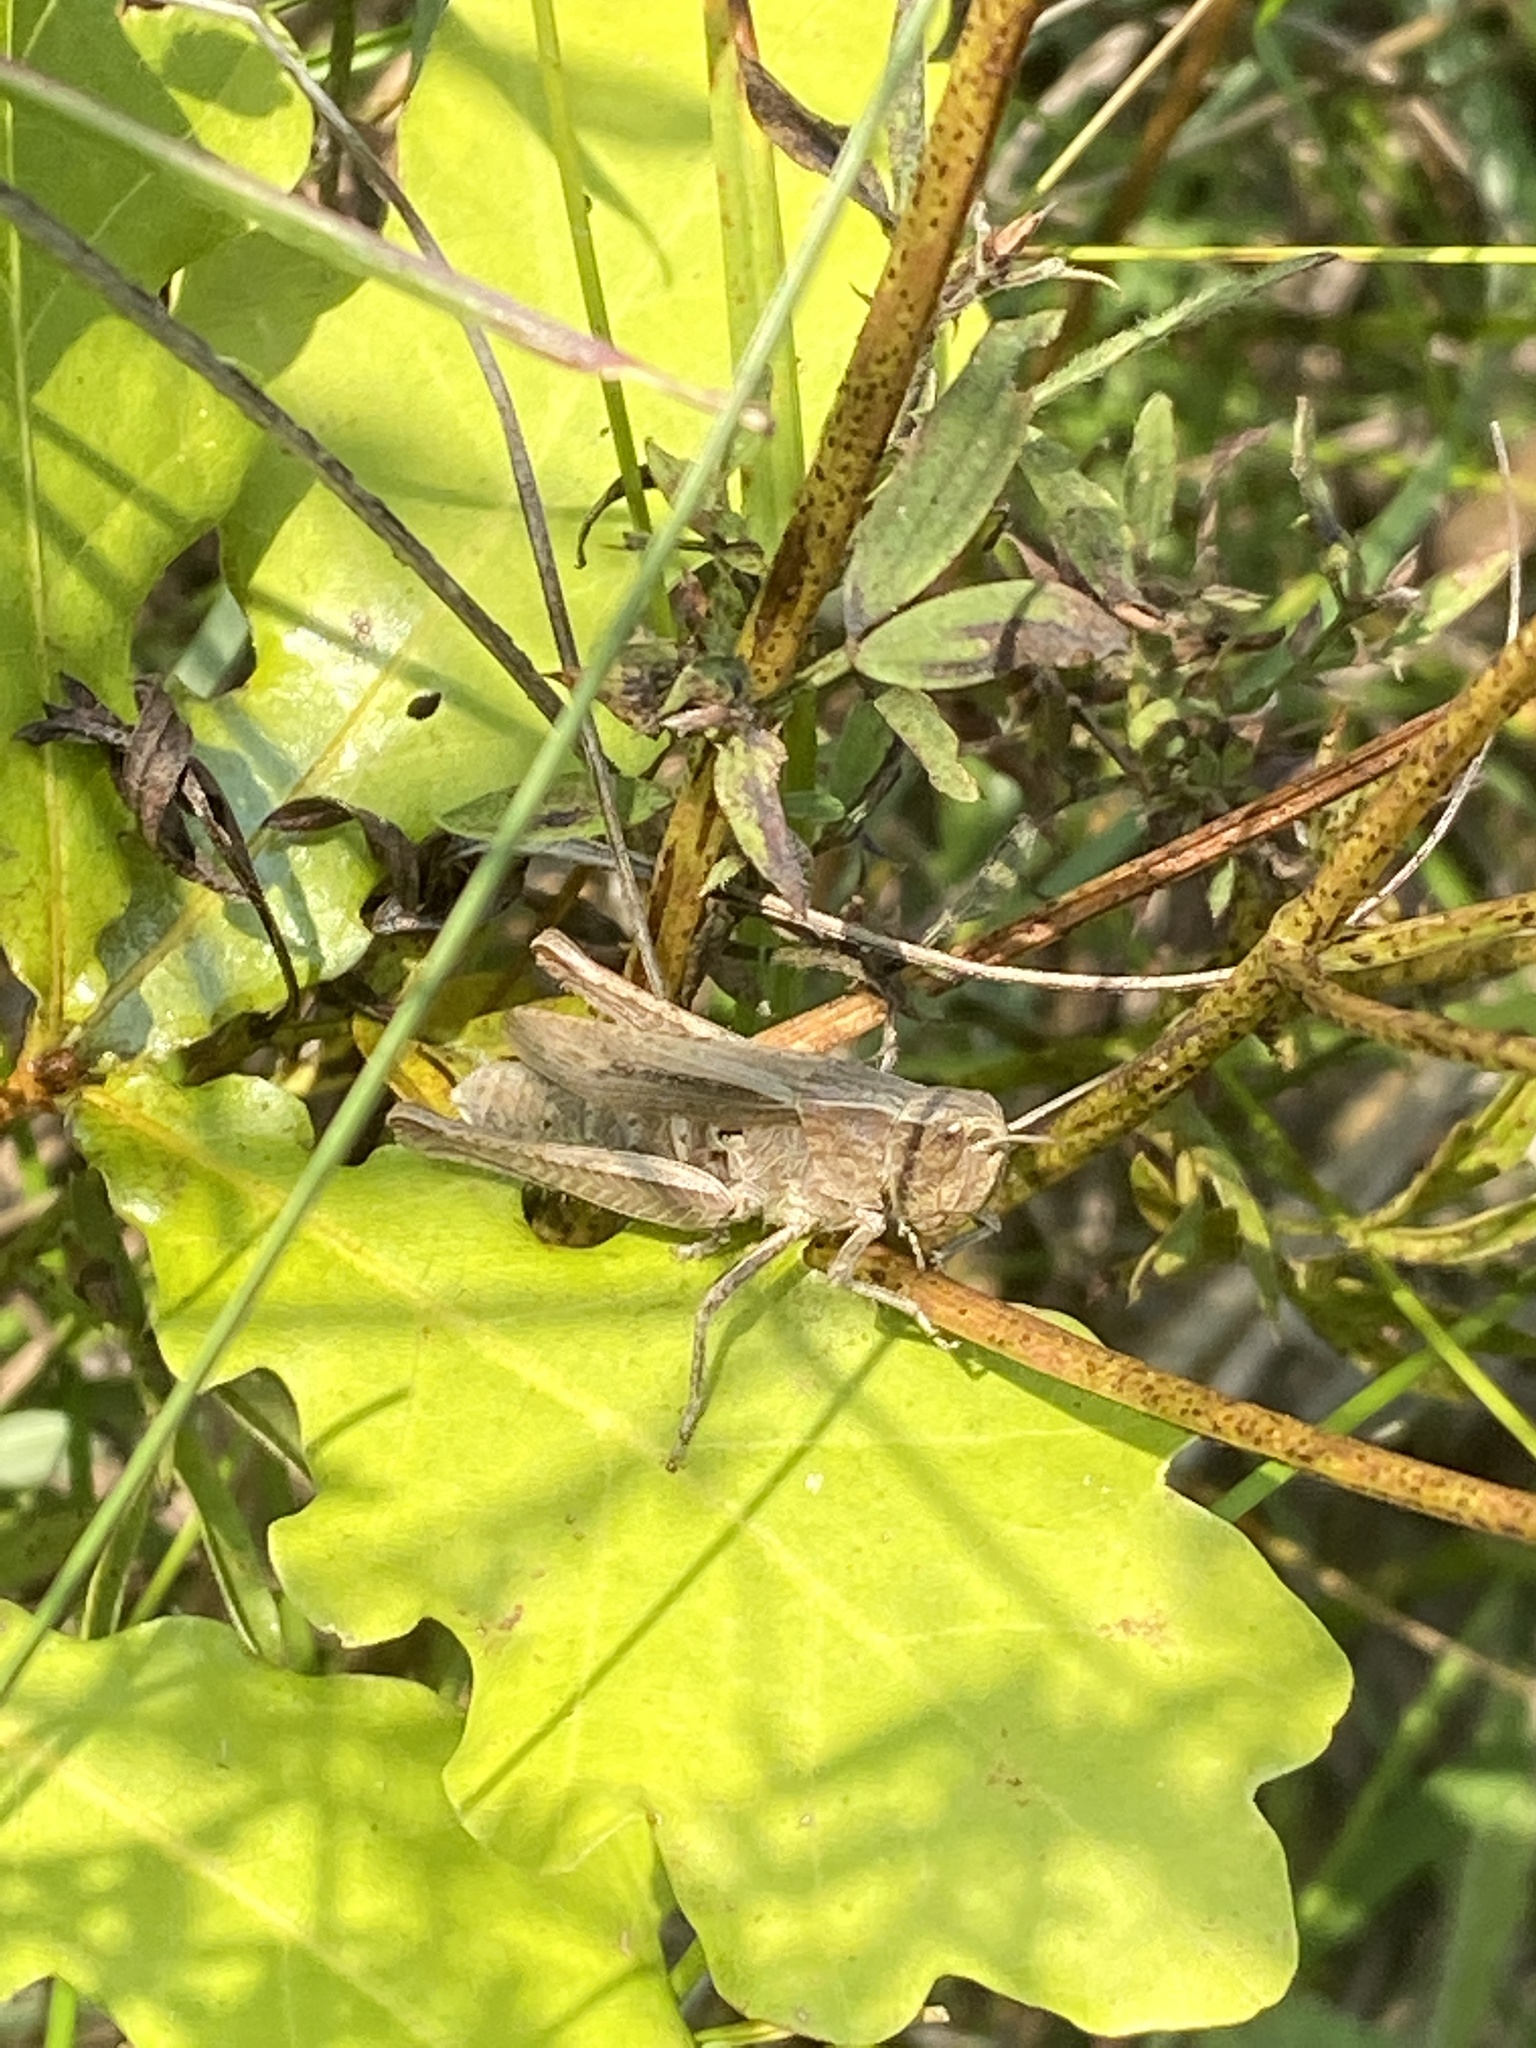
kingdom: Animalia
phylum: Arthropoda
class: Insecta
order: Orthoptera
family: Acrididae
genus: Chorthippus
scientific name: Chorthippus dorsatus
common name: Steppe grasshopper
